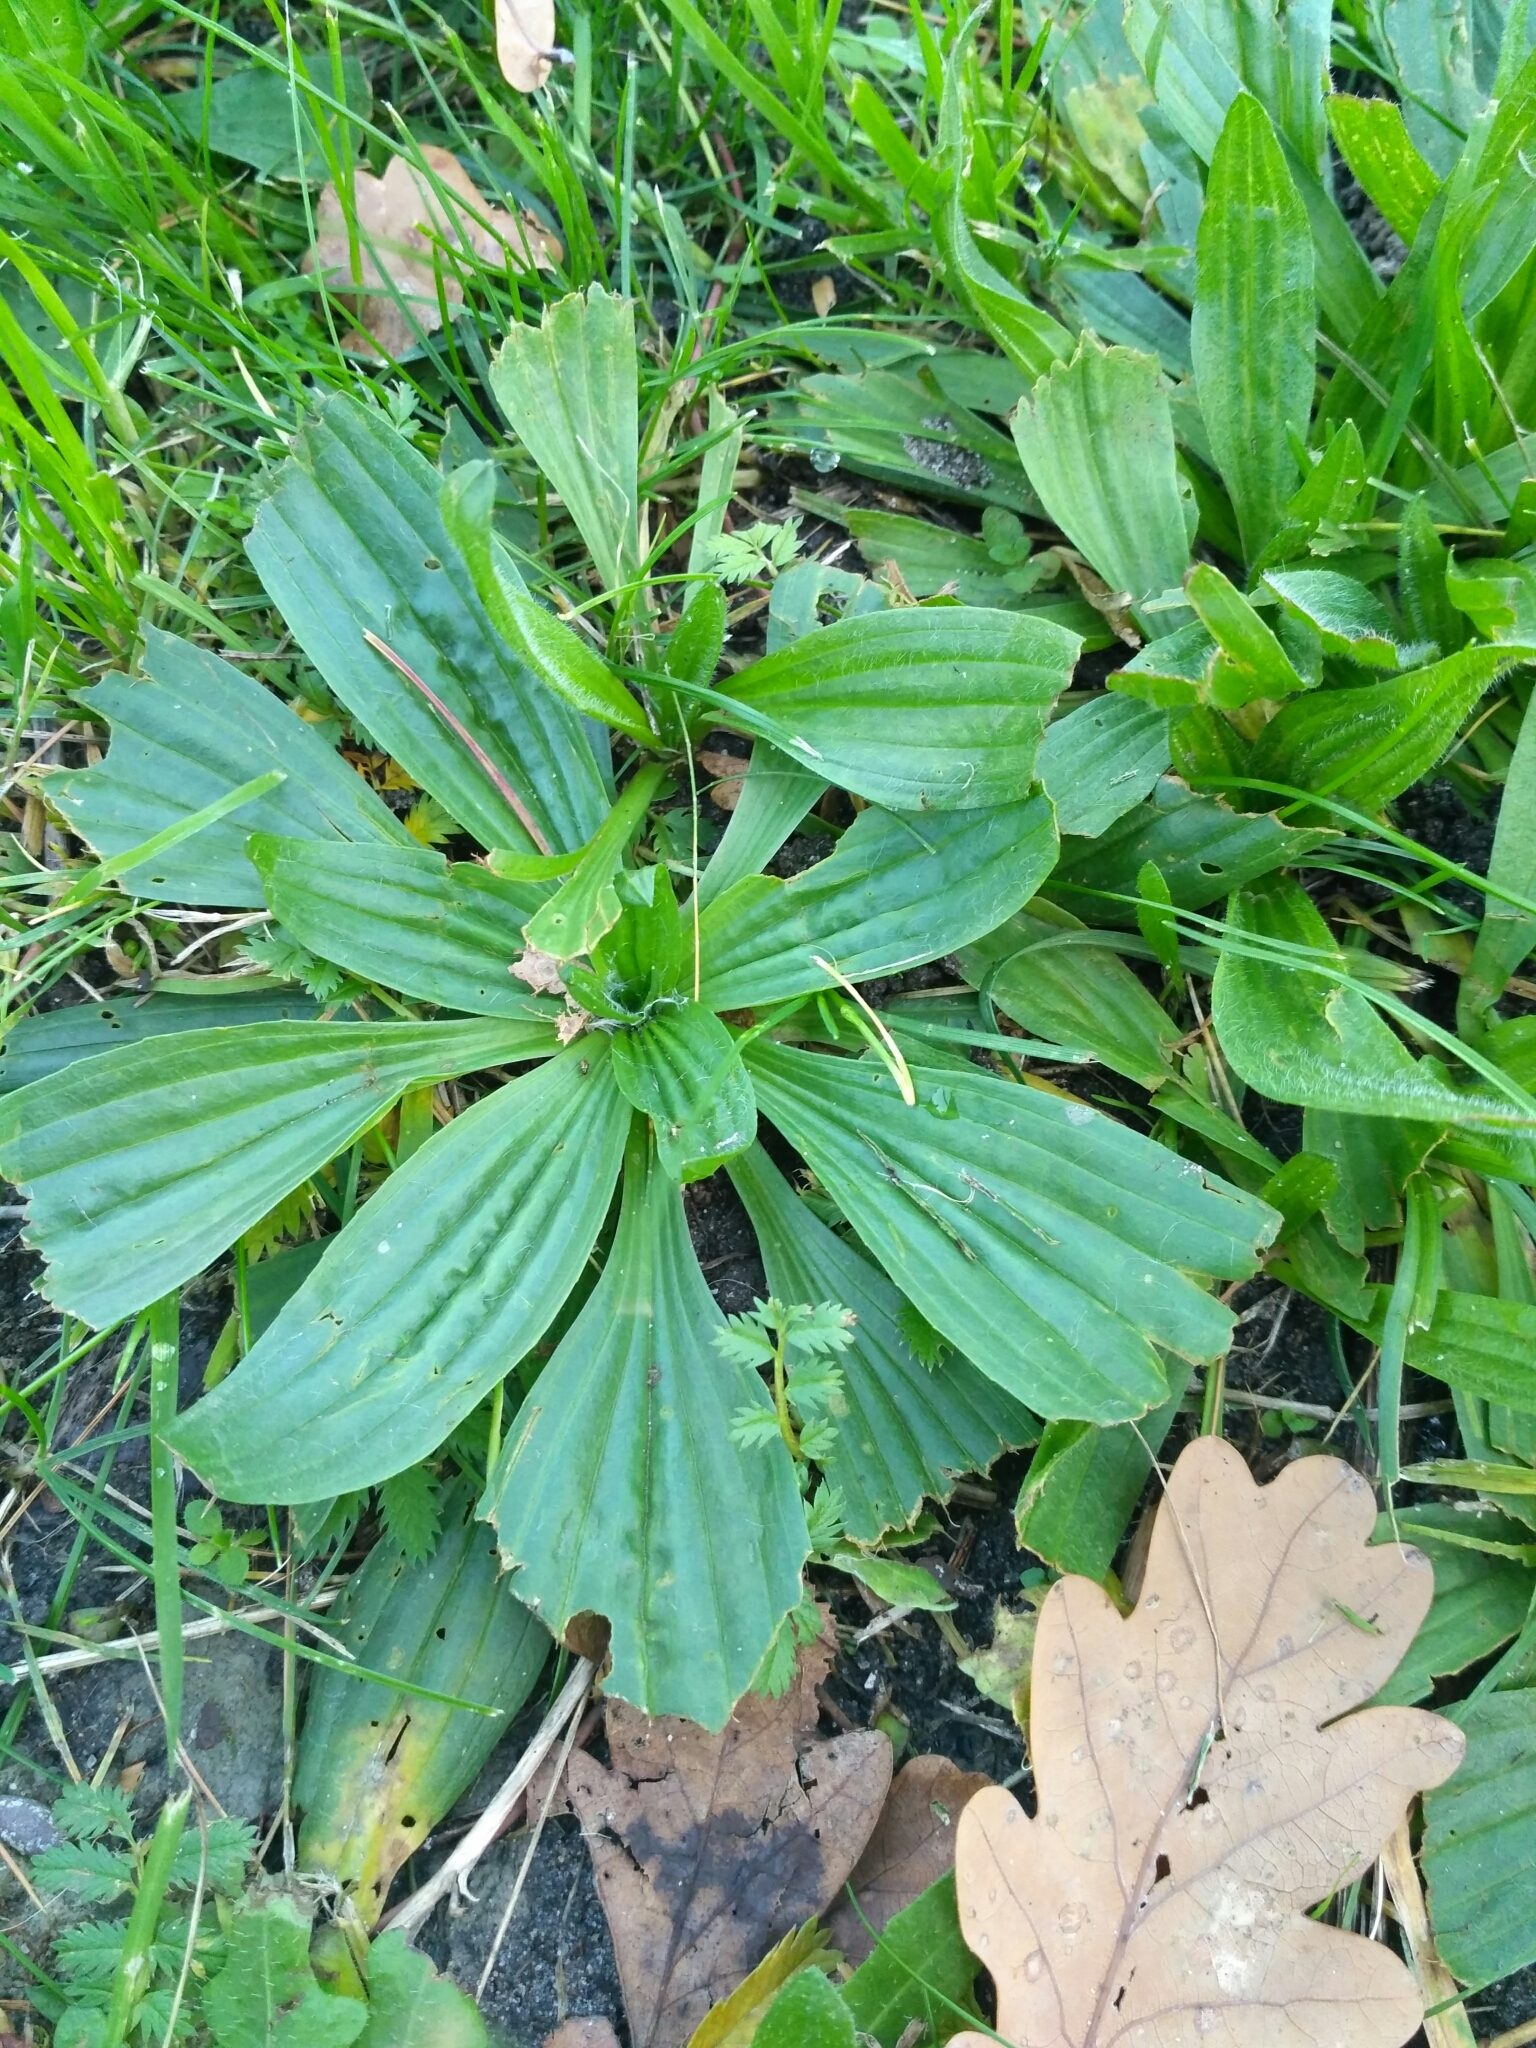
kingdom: Plantae
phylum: Tracheophyta
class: Magnoliopsida
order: Lamiales
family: Plantaginaceae
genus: Plantago
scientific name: Plantago lanceolata
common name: Ribwort plantain
